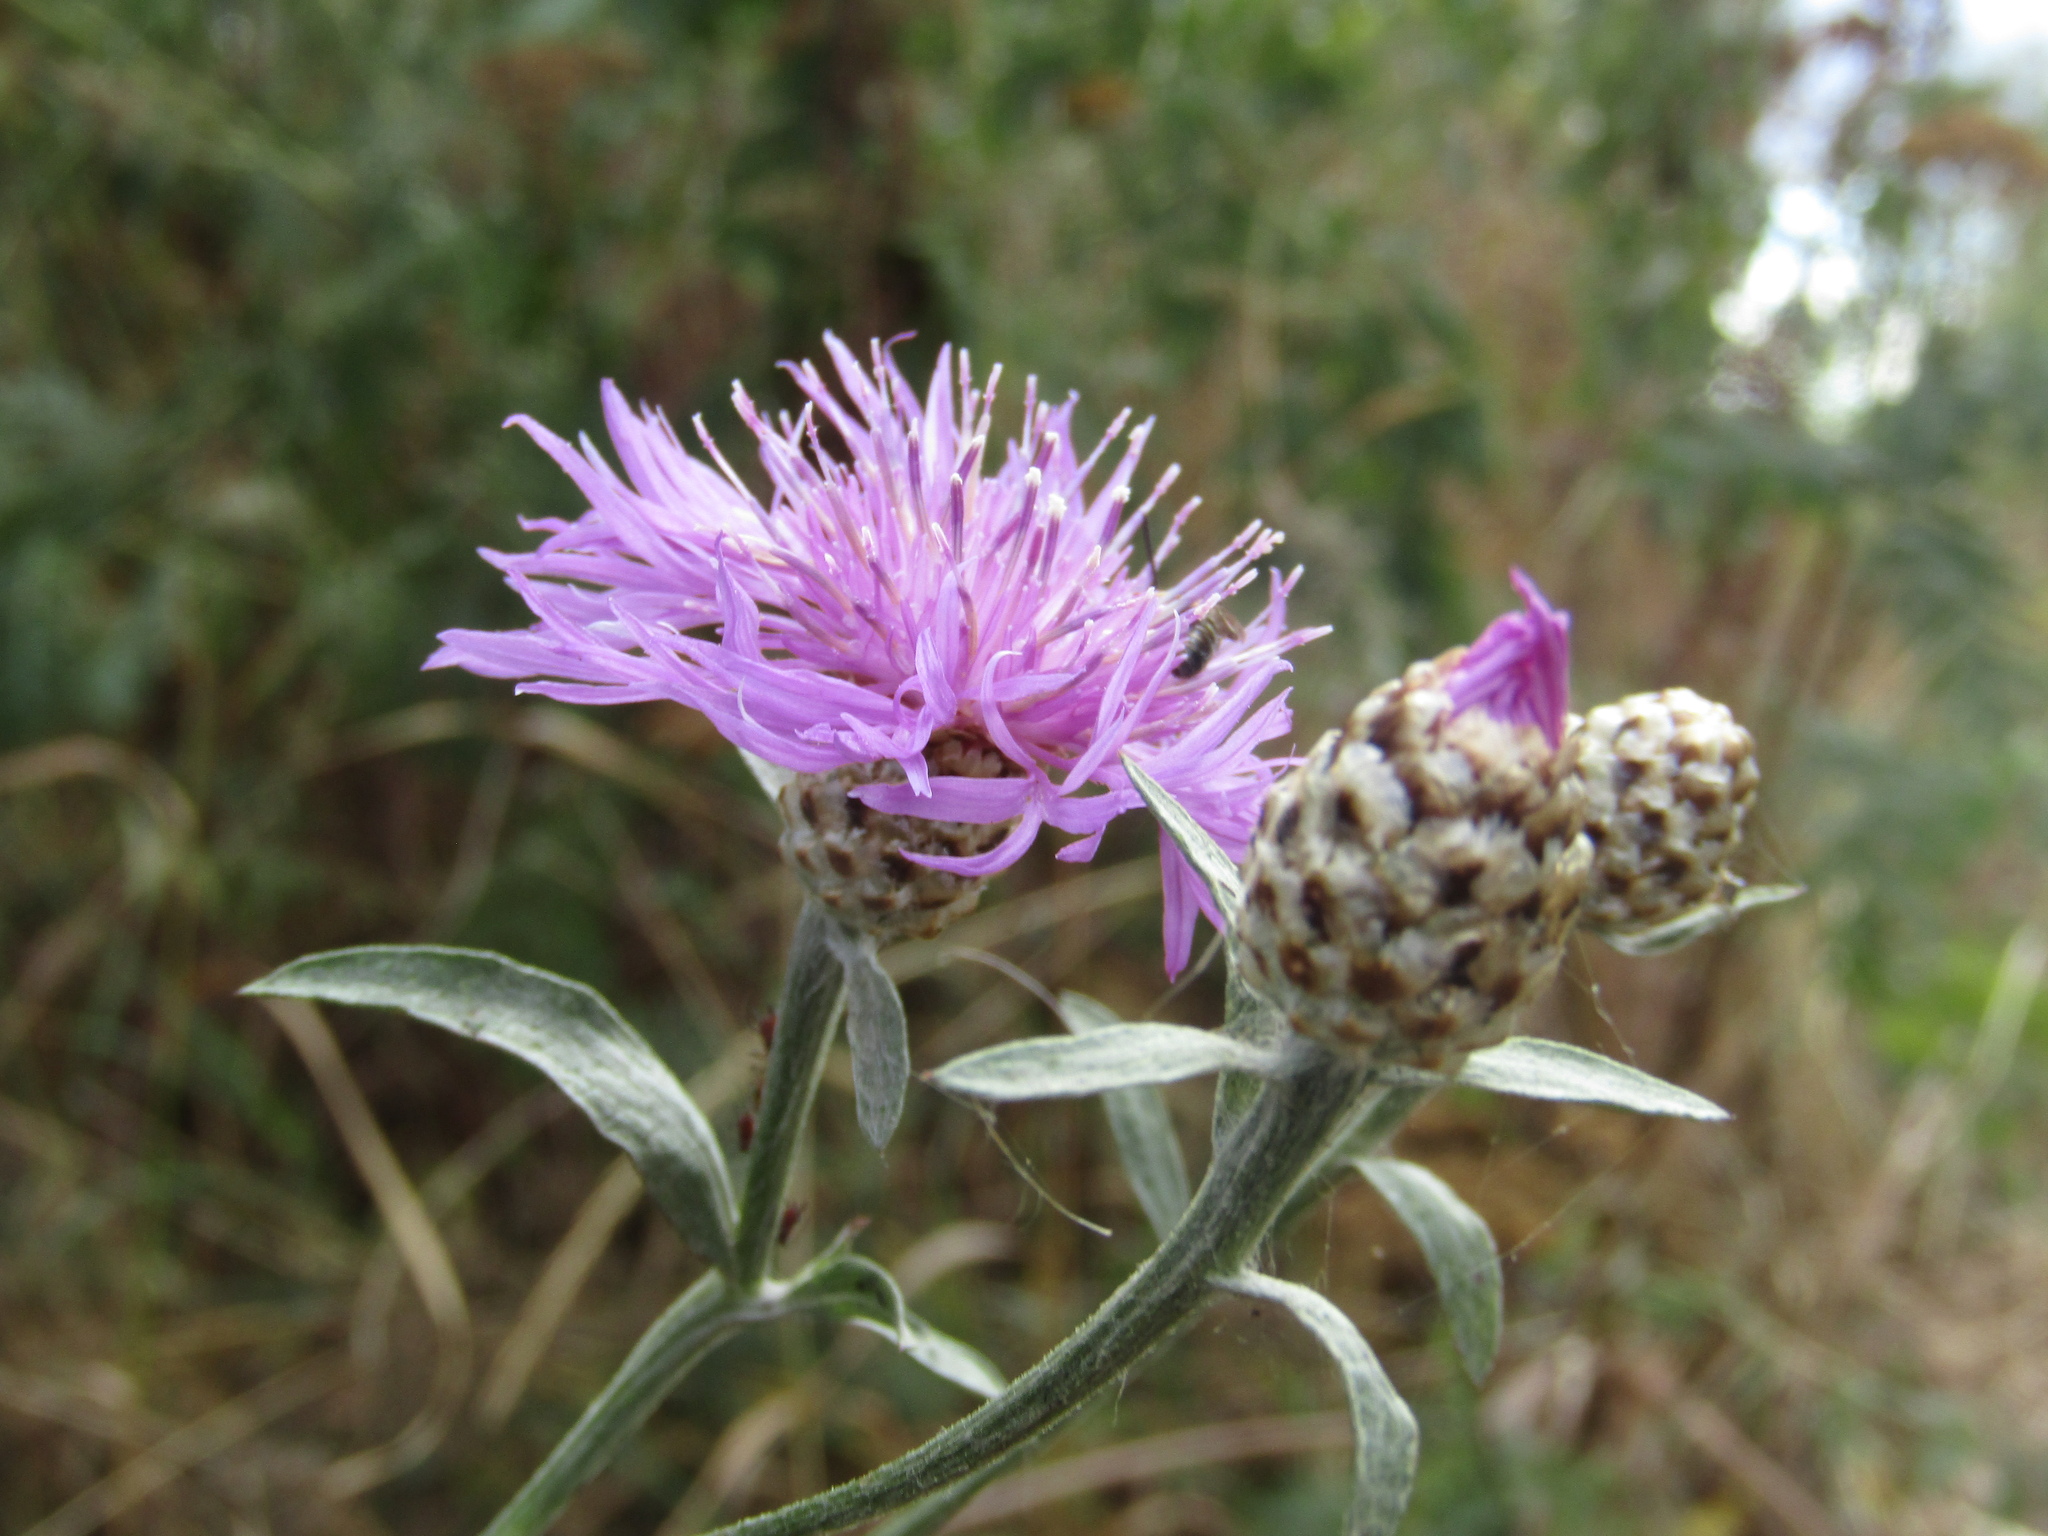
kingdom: Plantae
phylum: Tracheophyta
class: Magnoliopsida
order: Asterales
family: Asteraceae
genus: Centaurea
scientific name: Centaurea jacea
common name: Brown knapweed
